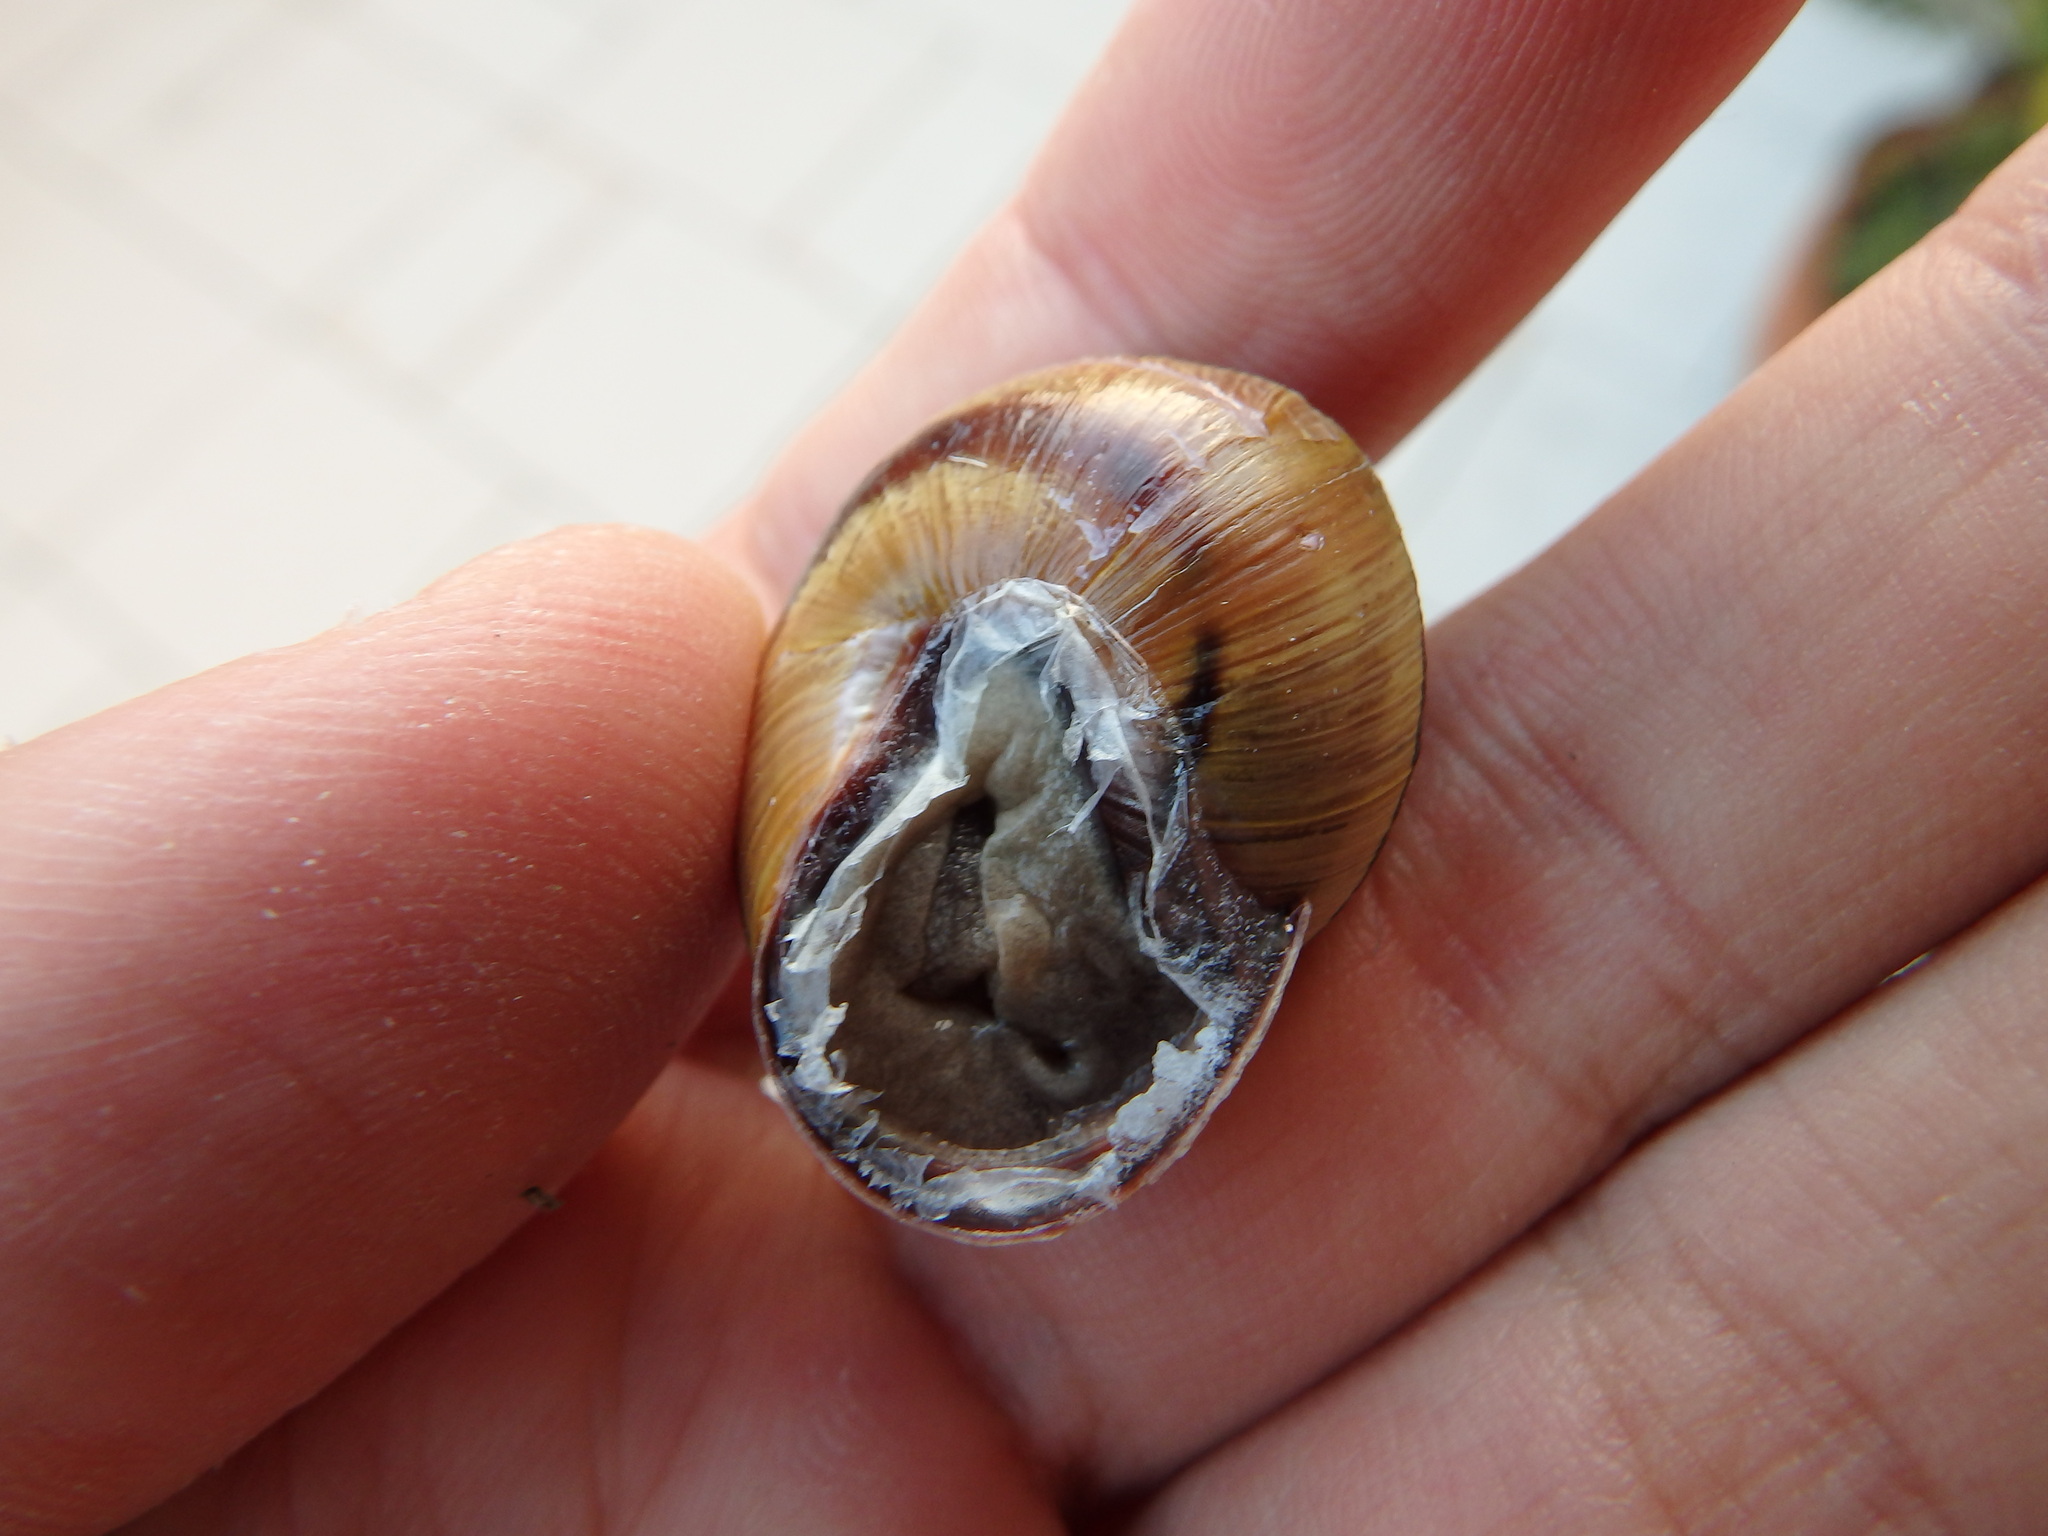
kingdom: Animalia
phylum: Mollusca
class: Gastropoda
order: Stylommatophora
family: Helicidae
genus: Cepaea
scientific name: Cepaea nemoralis
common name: Grovesnail
